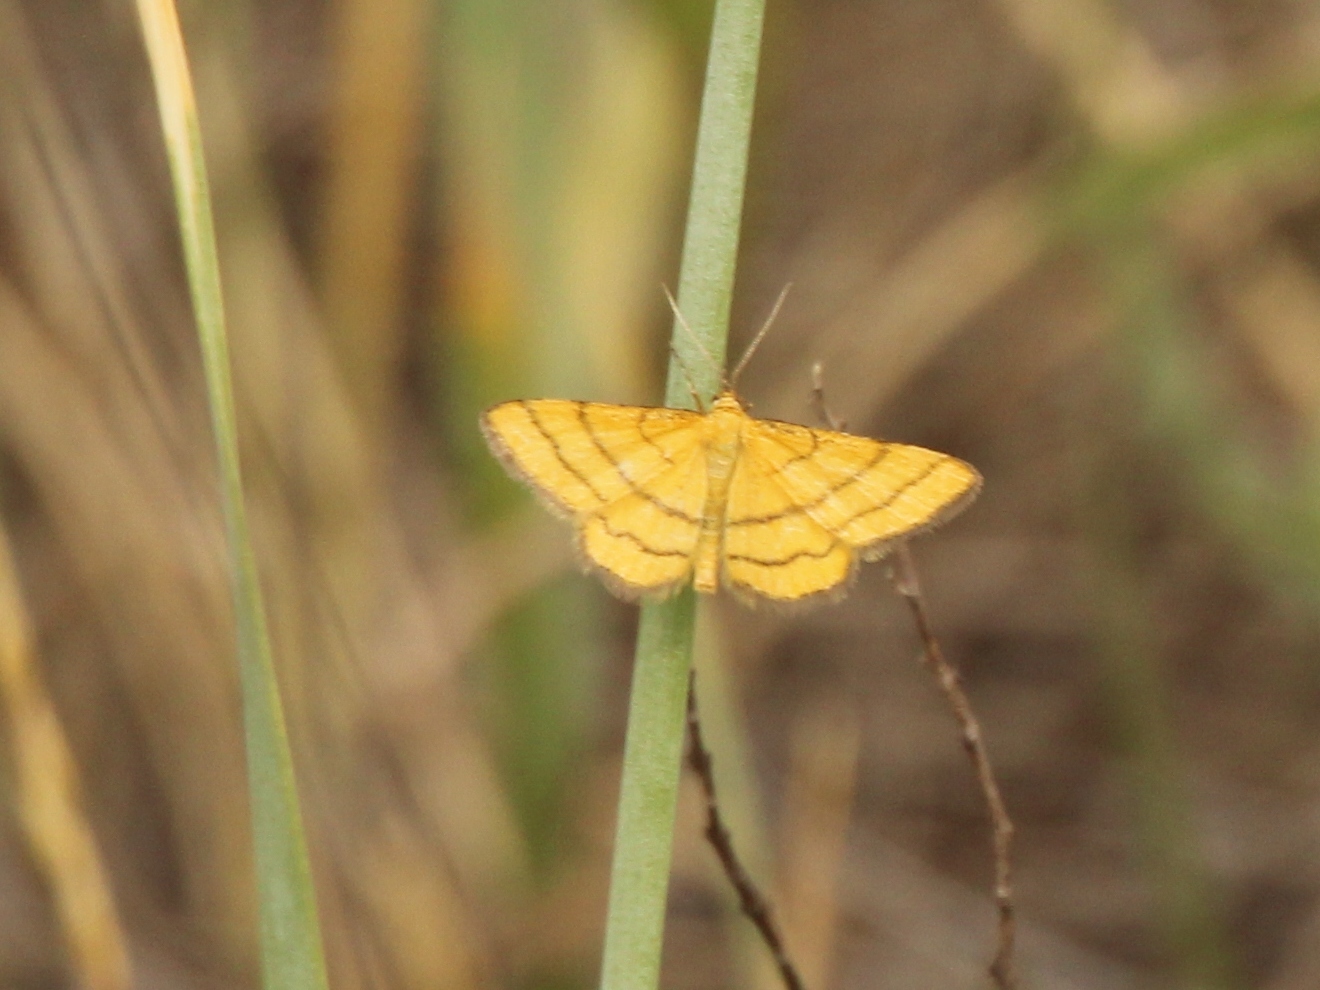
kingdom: Animalia
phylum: Arthropoda
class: Insecta
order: Lepidoptera
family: Geometridae
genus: Idaea
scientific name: Idaea aureolaria
